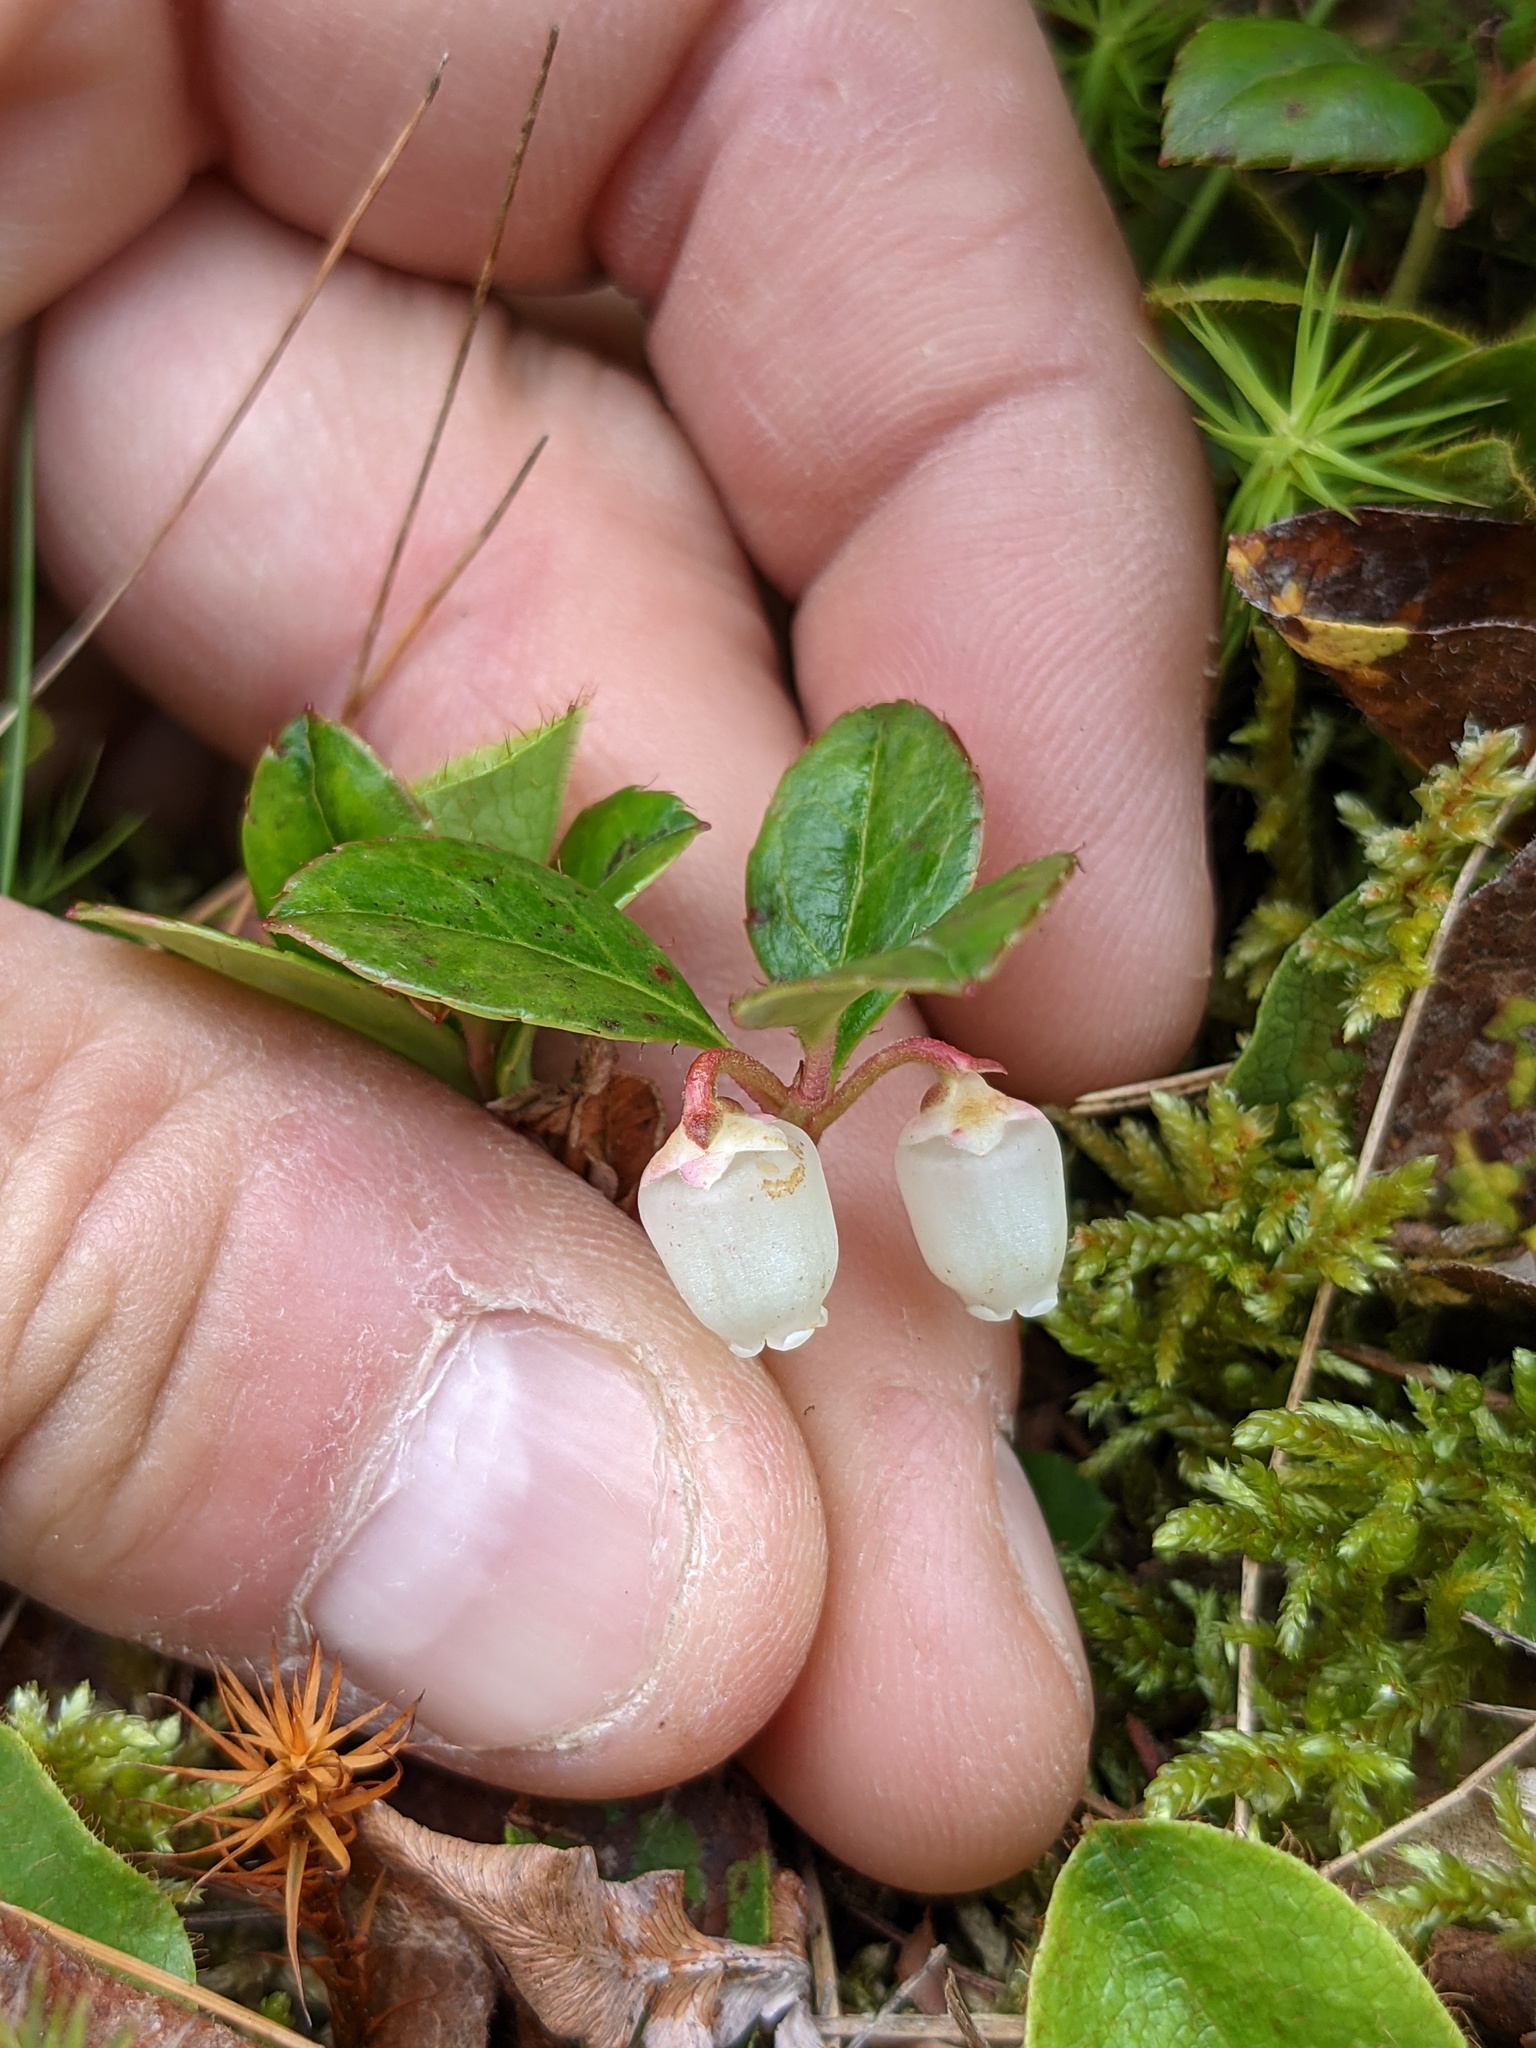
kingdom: Plantae
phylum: Tracheophyta
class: Magnoliopsida
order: Ericales
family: Ericaceae
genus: Gaultheria
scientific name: Gaultheria procumbens
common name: Checkerberry
